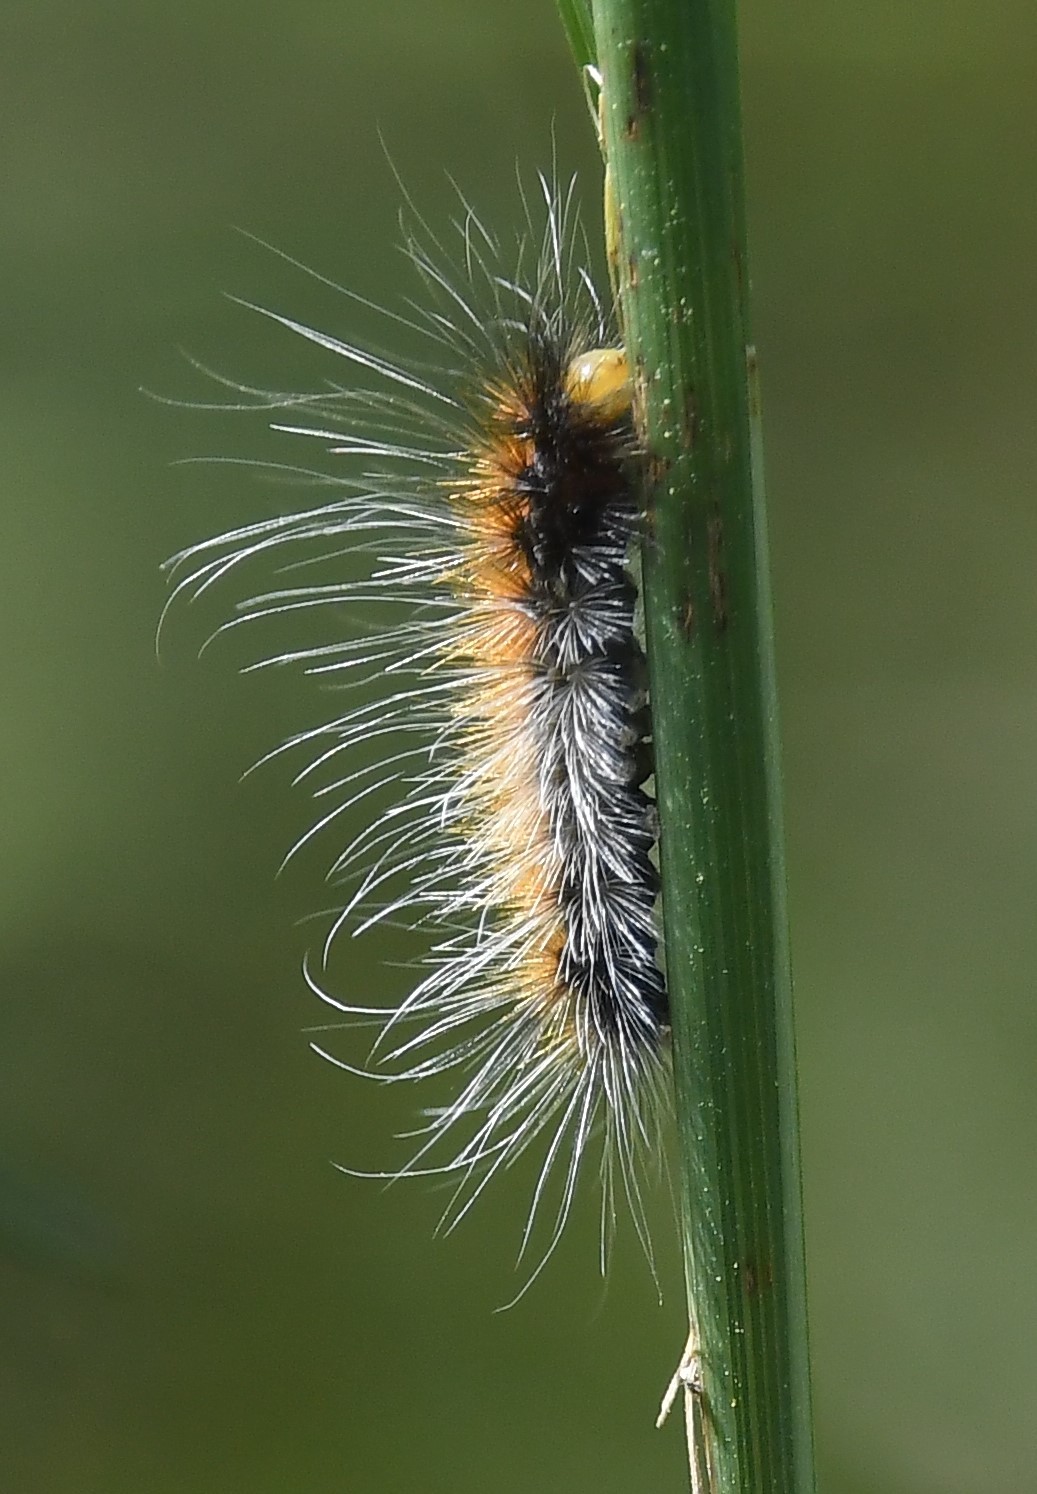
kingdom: Animalia
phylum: Arthropoda
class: Insecta
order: Lepidoptera
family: Erebidae
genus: Spilosoma
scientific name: Spilosoma virginica
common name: Virginia tiger moth
